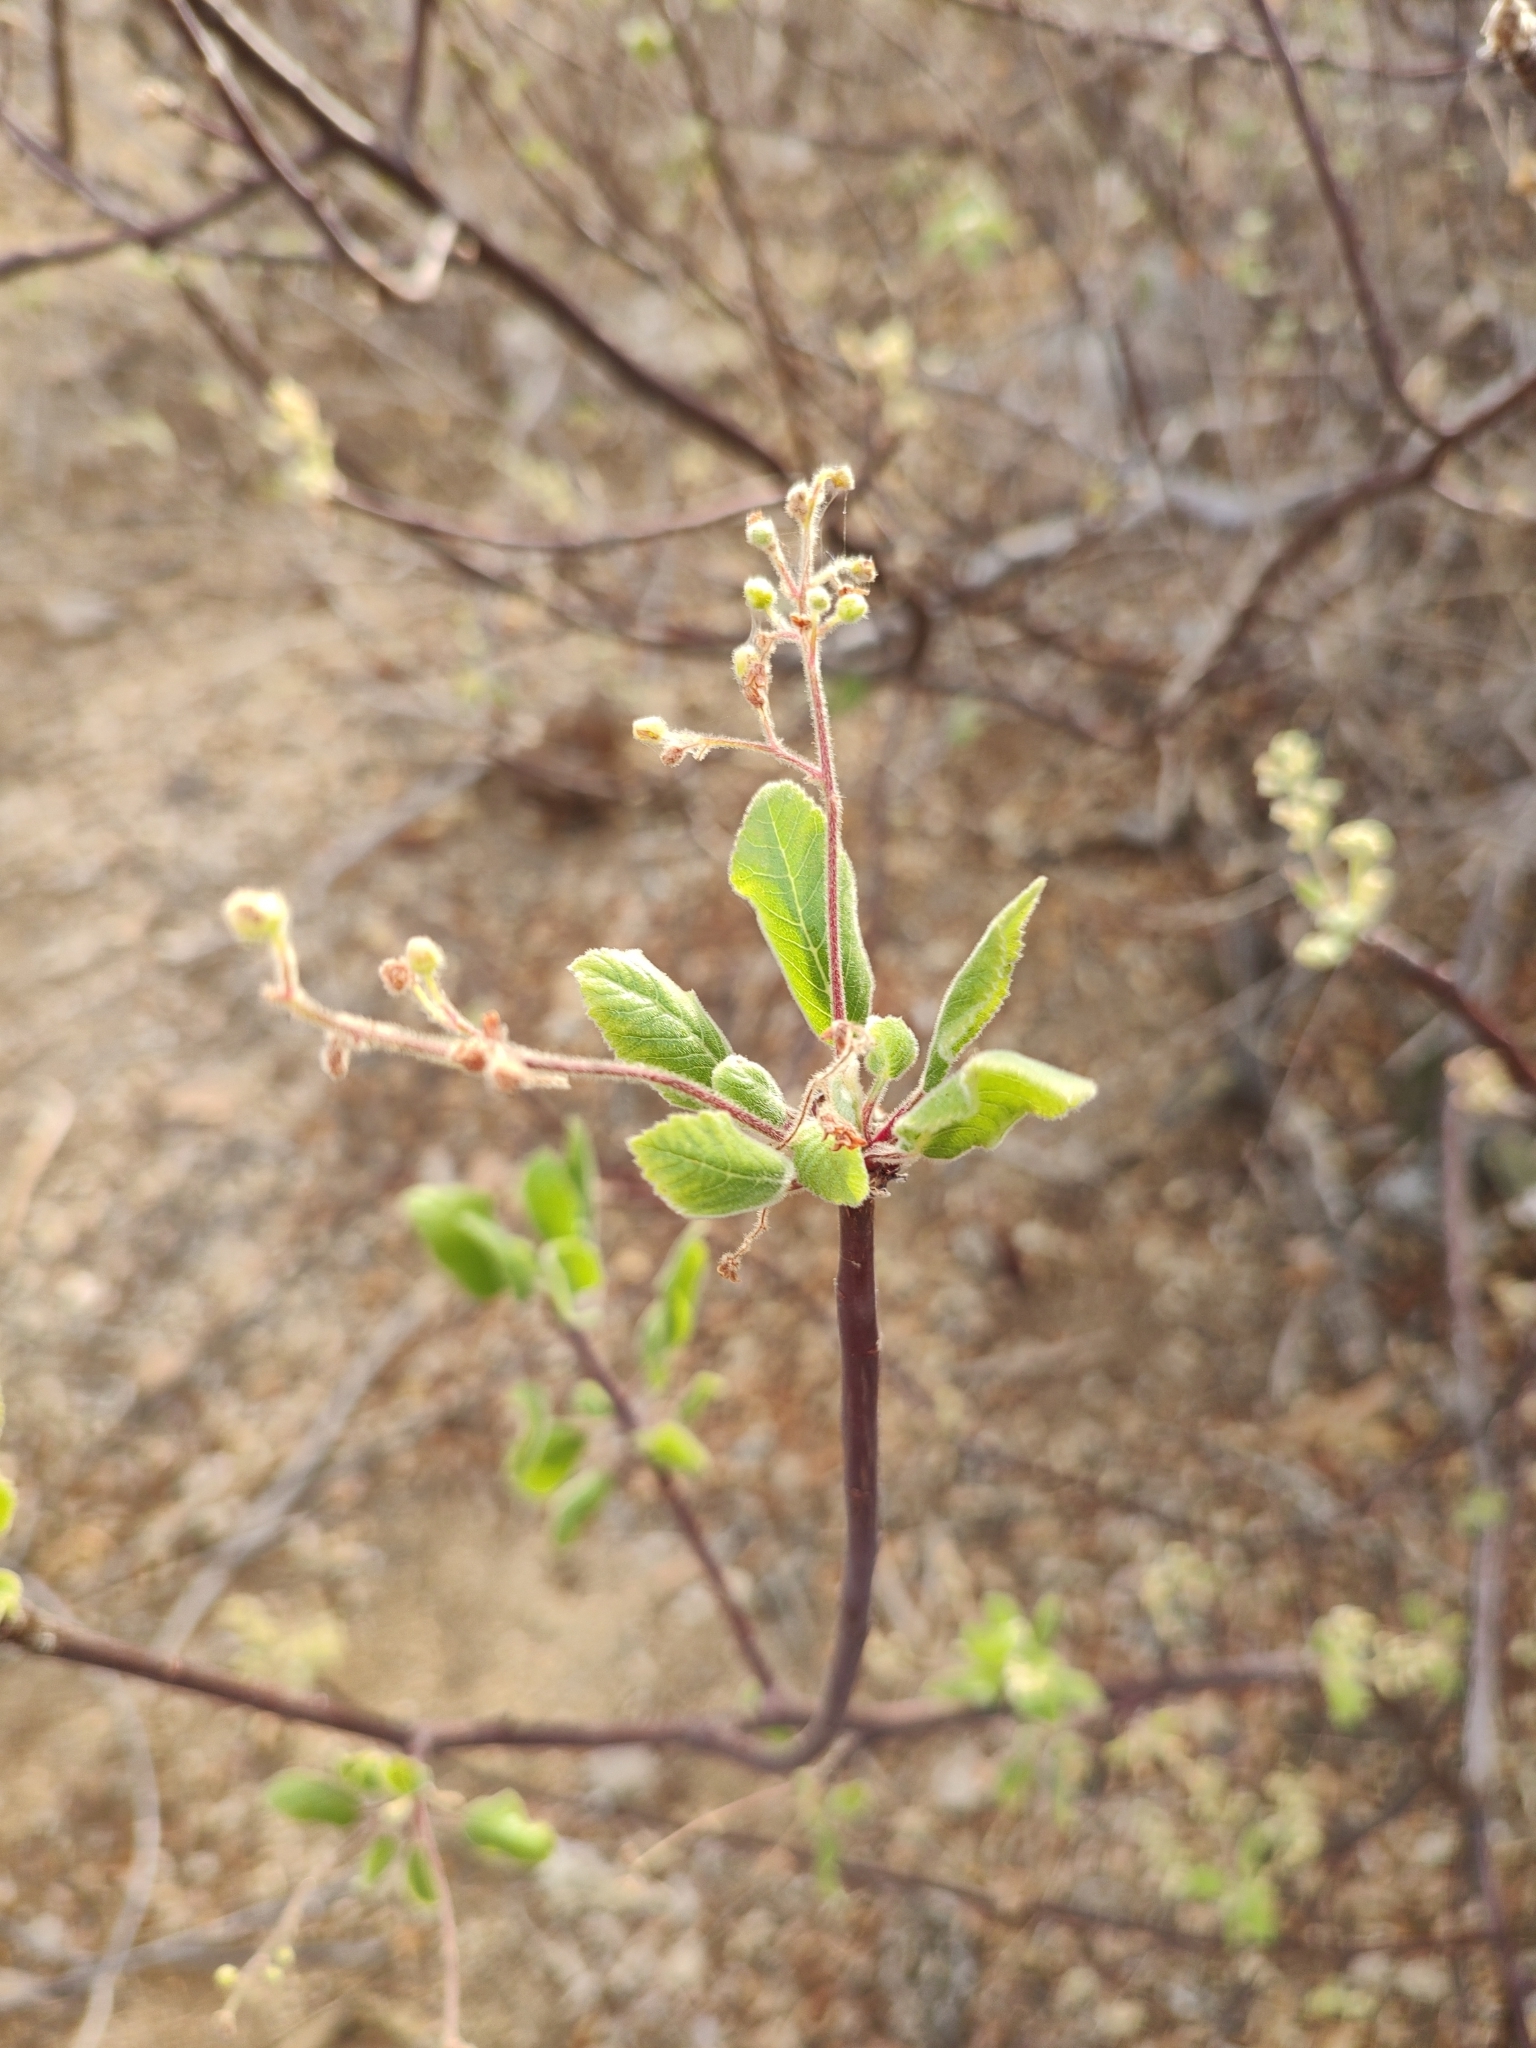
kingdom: Plantae
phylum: Tracheophyta
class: Magnoliopsida
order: Sapindales
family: Burseraceae
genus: Bursera
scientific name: Bursera epinnata
